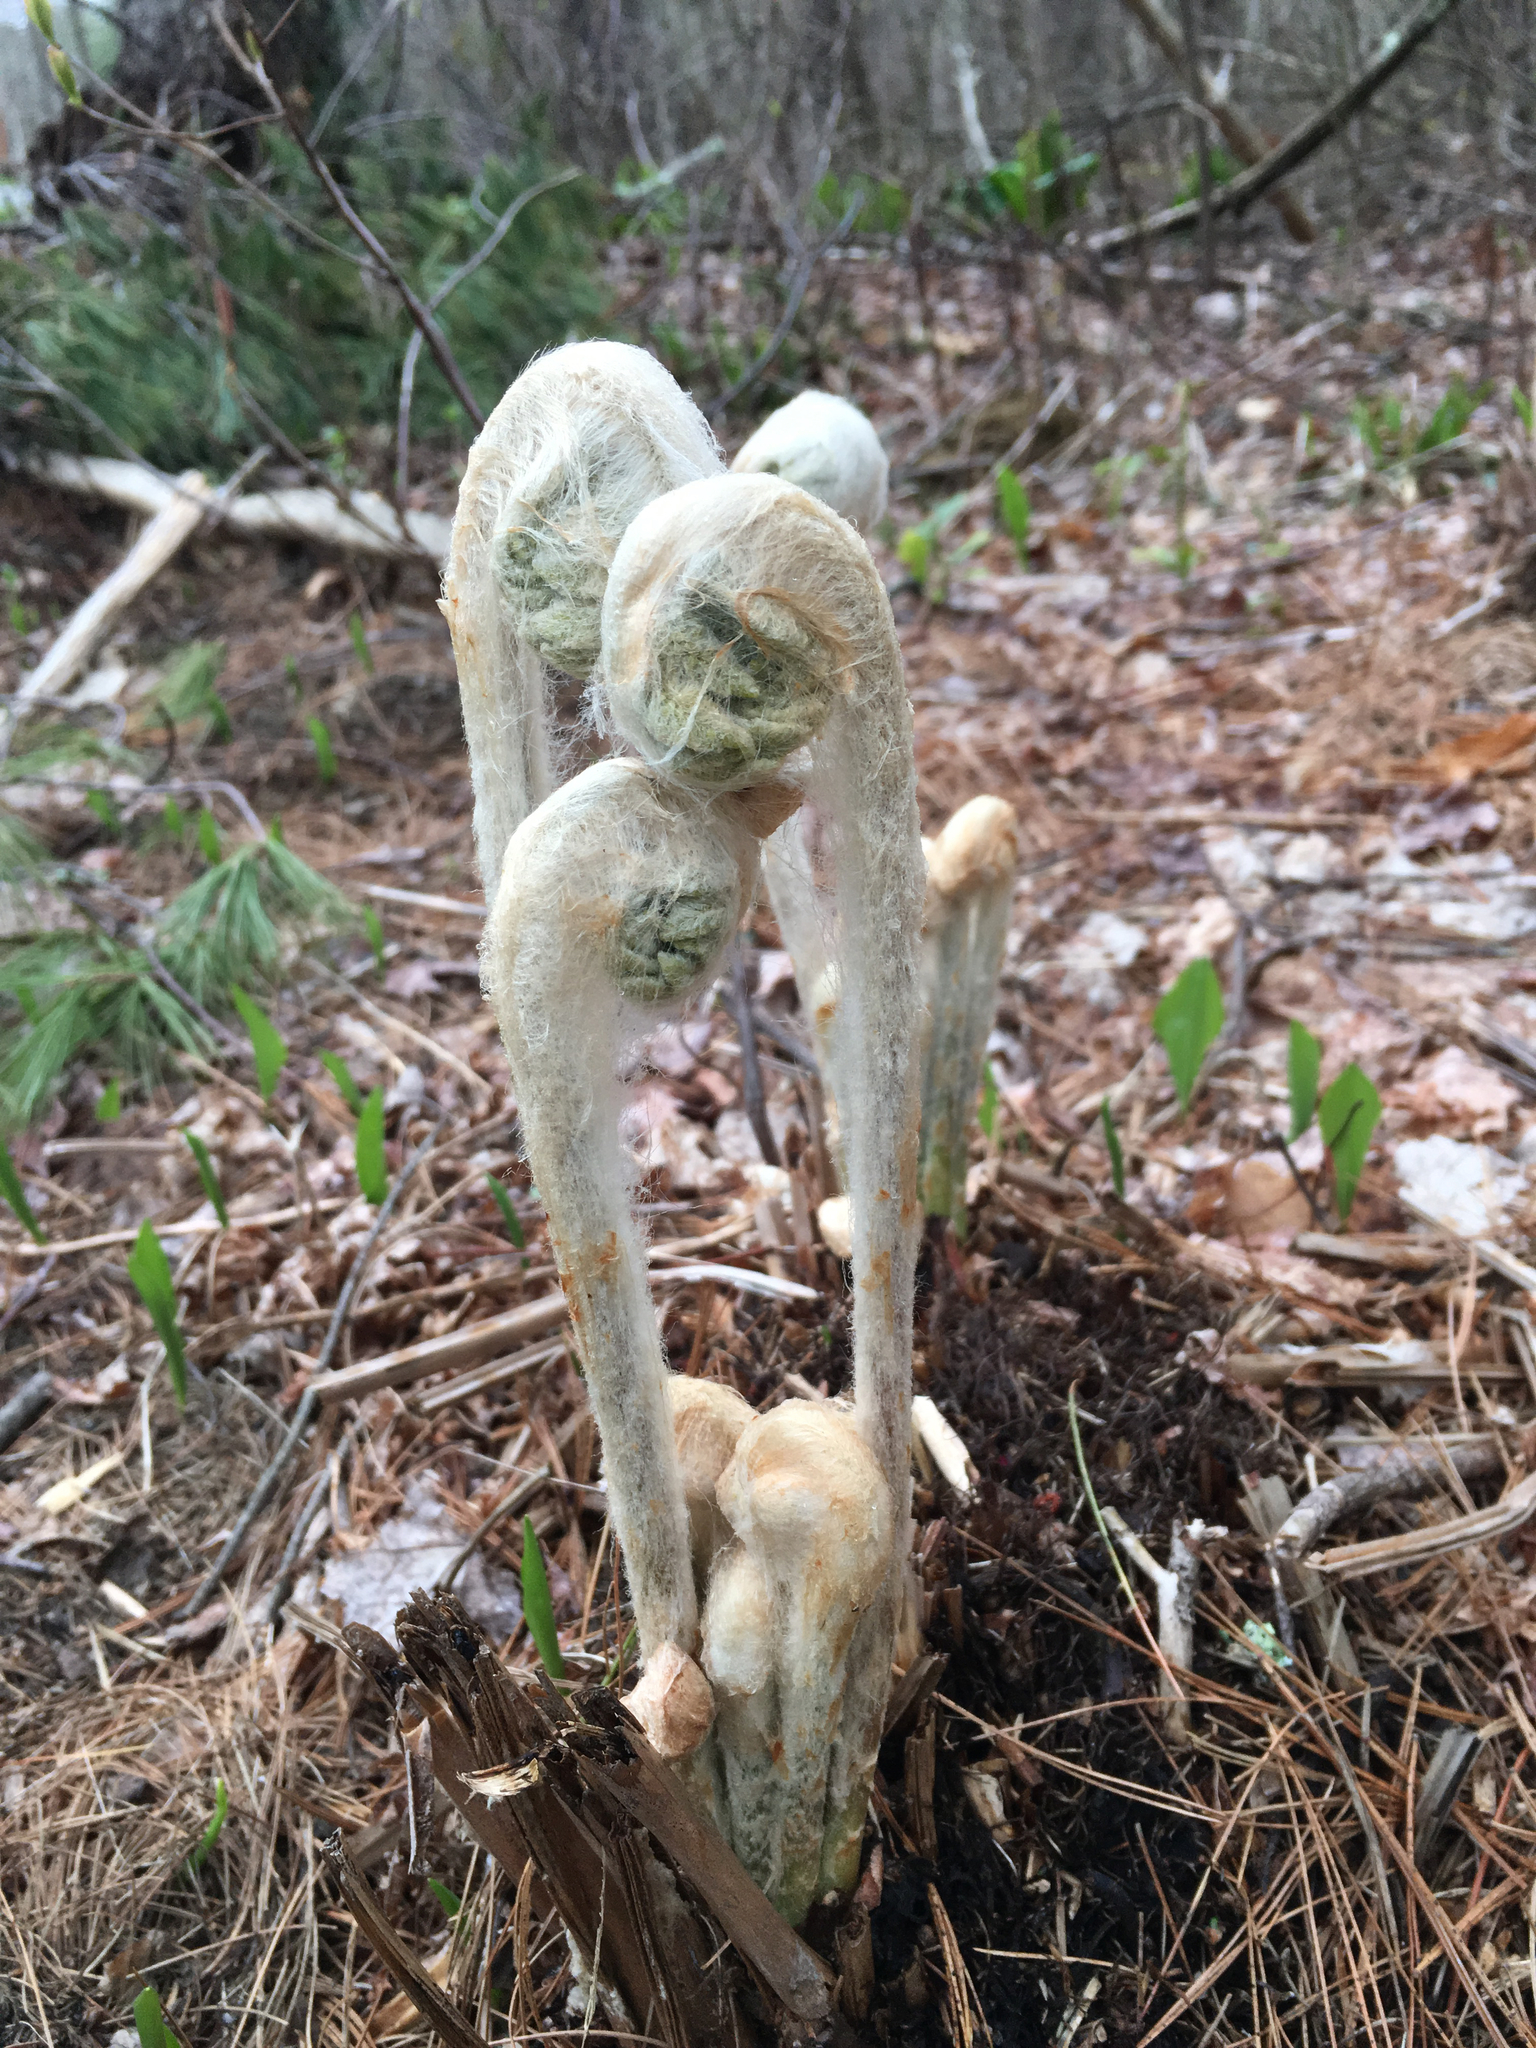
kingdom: Plantae
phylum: Tracheophyta
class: Polypodiopsida
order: Osmundales
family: Osmundaceae
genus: Osmundastrum
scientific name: Osmundastrum cinnamomeum
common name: Cinnamon fern
